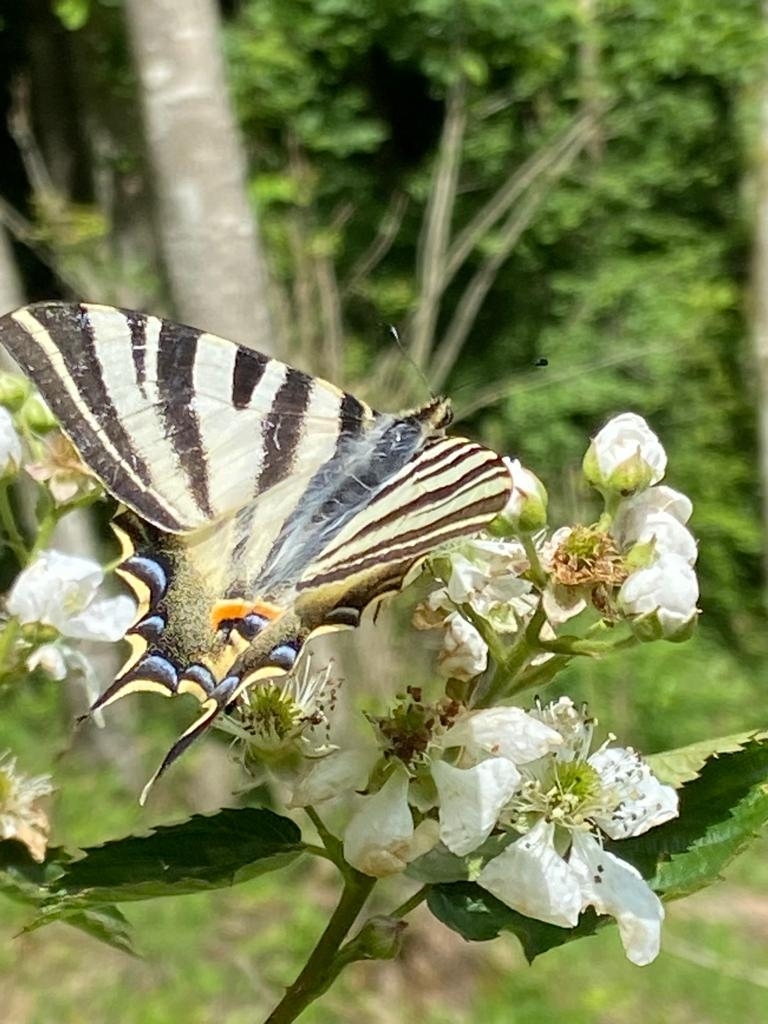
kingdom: Animalia
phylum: Arthropoda
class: Insecta
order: Lepidoptera
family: Papilionidae
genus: Iphiclides
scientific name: Iphiclides feisthamelii
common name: Iberian scarce swallowtail
